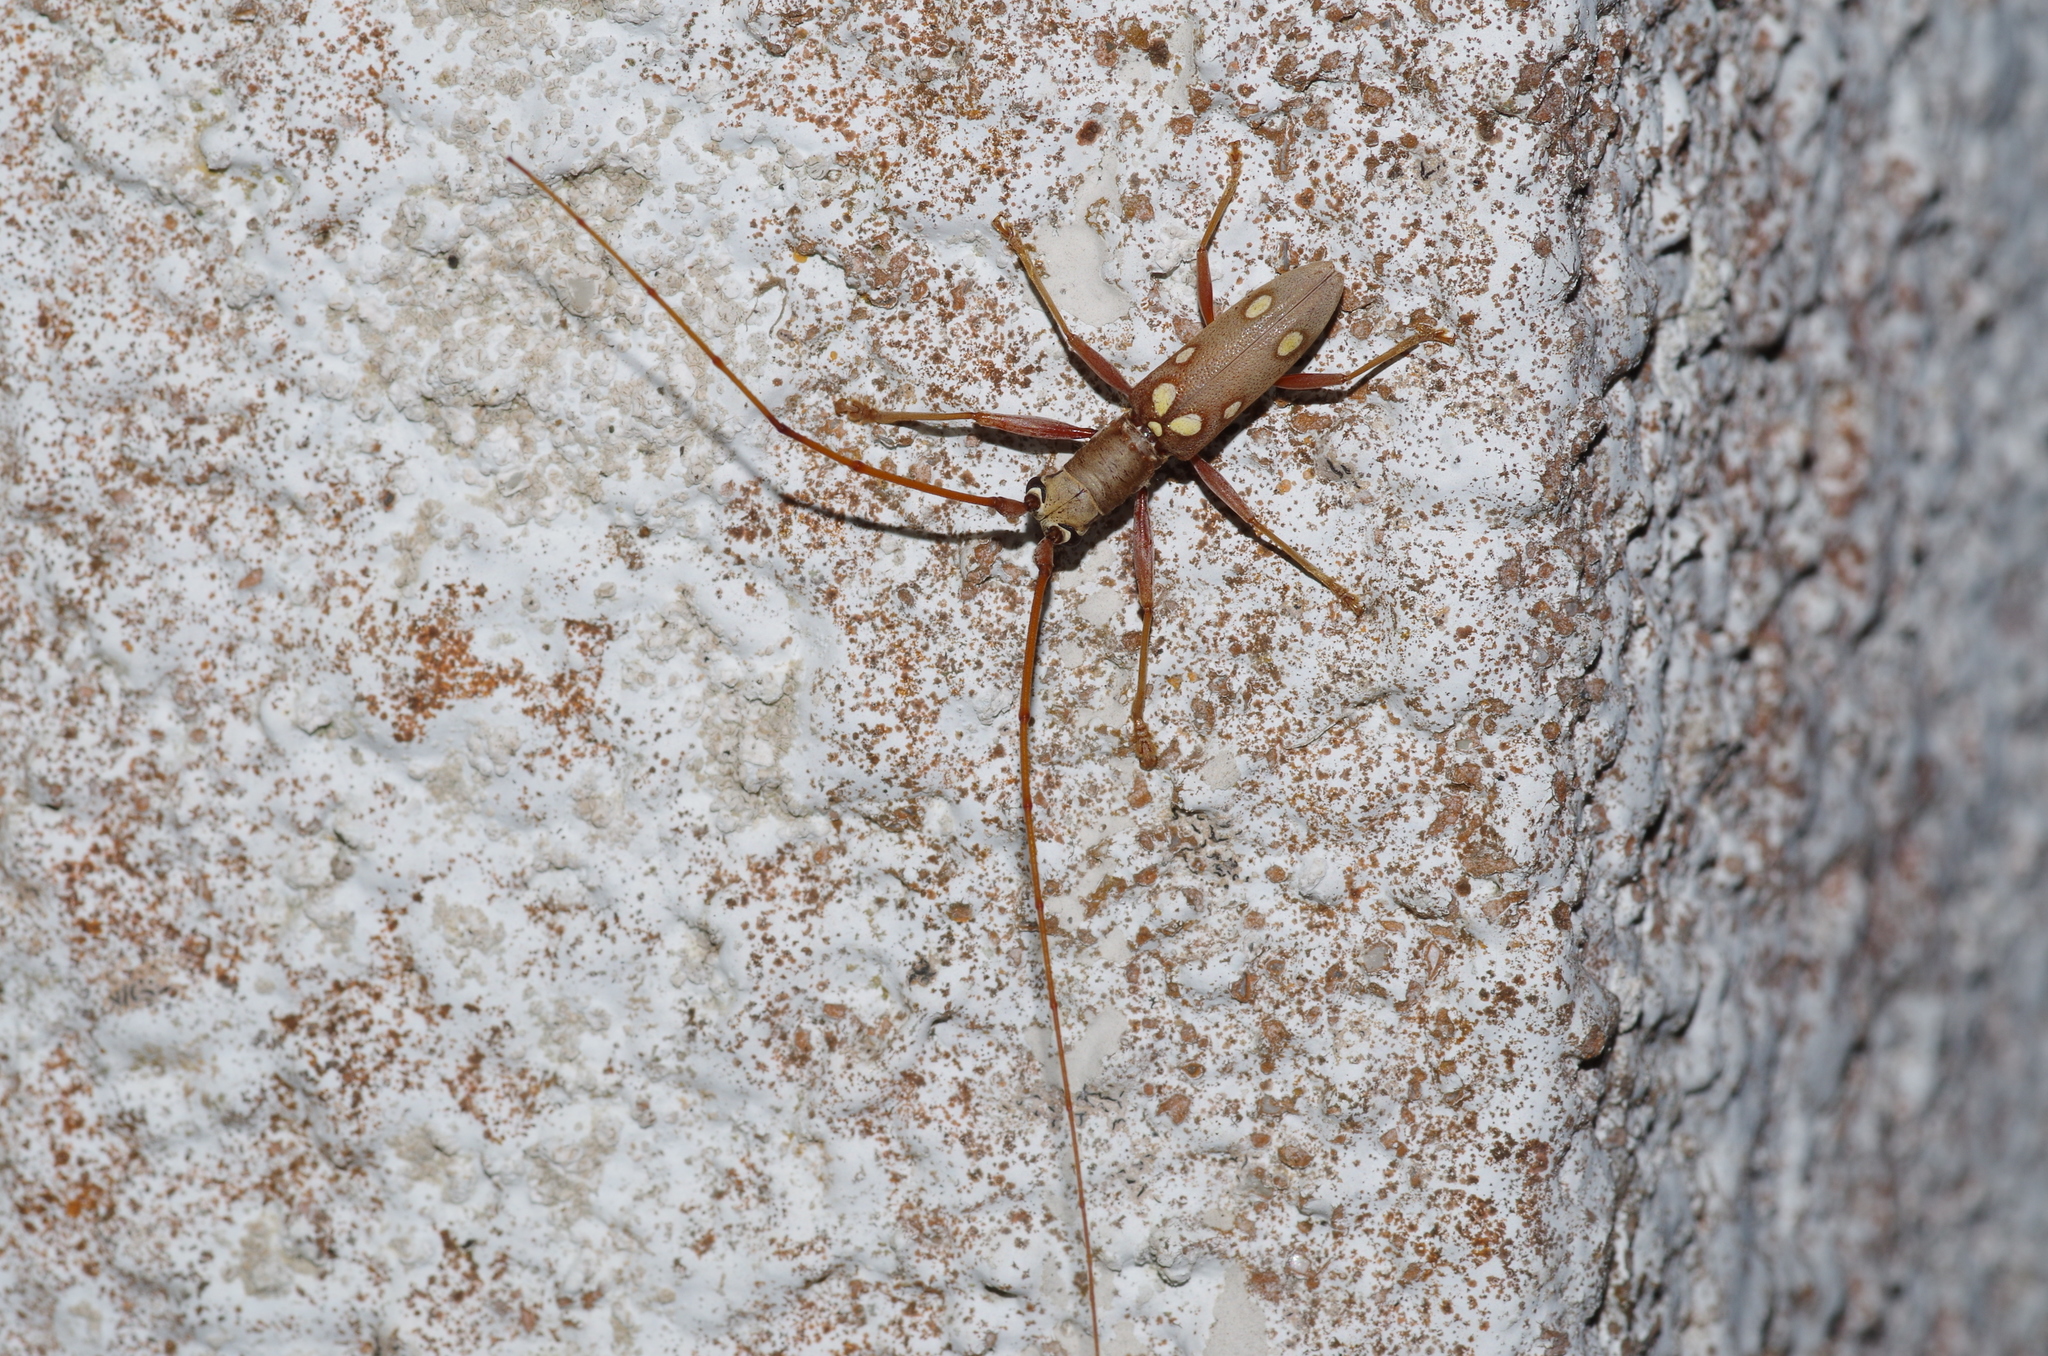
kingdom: Animalia
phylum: Arthropoda
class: Insecta
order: Coleoptera
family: Cerambycidae
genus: Olenecamptus
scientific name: Olenecamptus taiwanus
